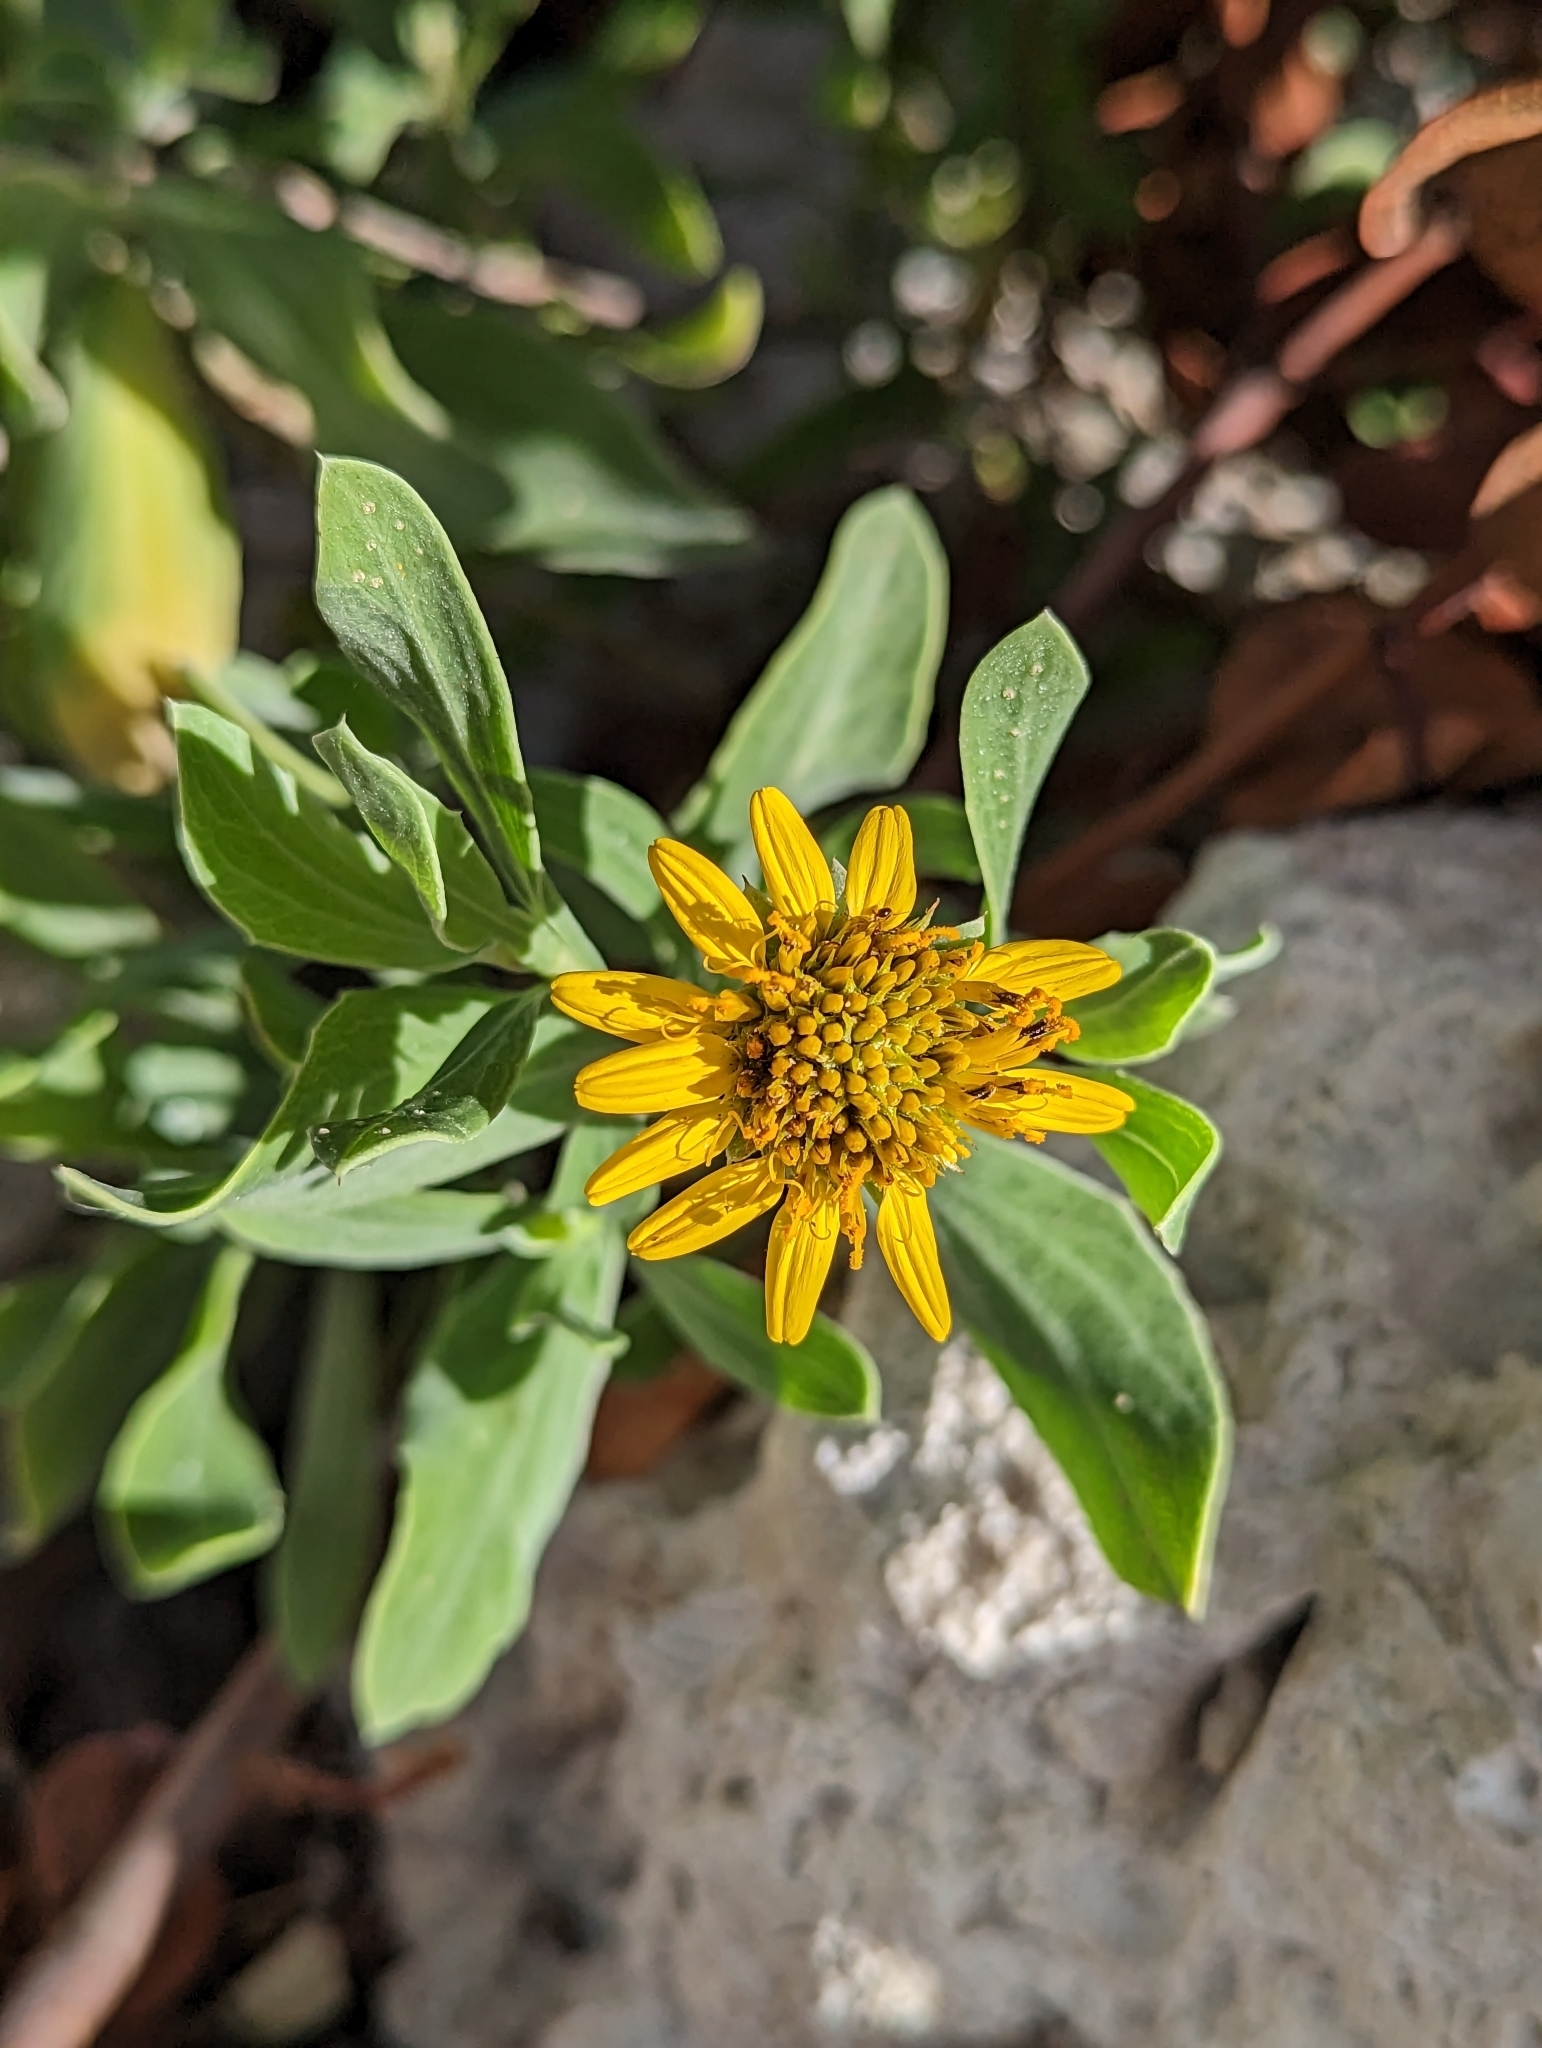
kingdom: Plantae
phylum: Tracheophyta
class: Magnoliopsida
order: Asterales
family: Asteraceae
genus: Borrichia
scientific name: Borrichia frutescens
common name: Sea oxeye
